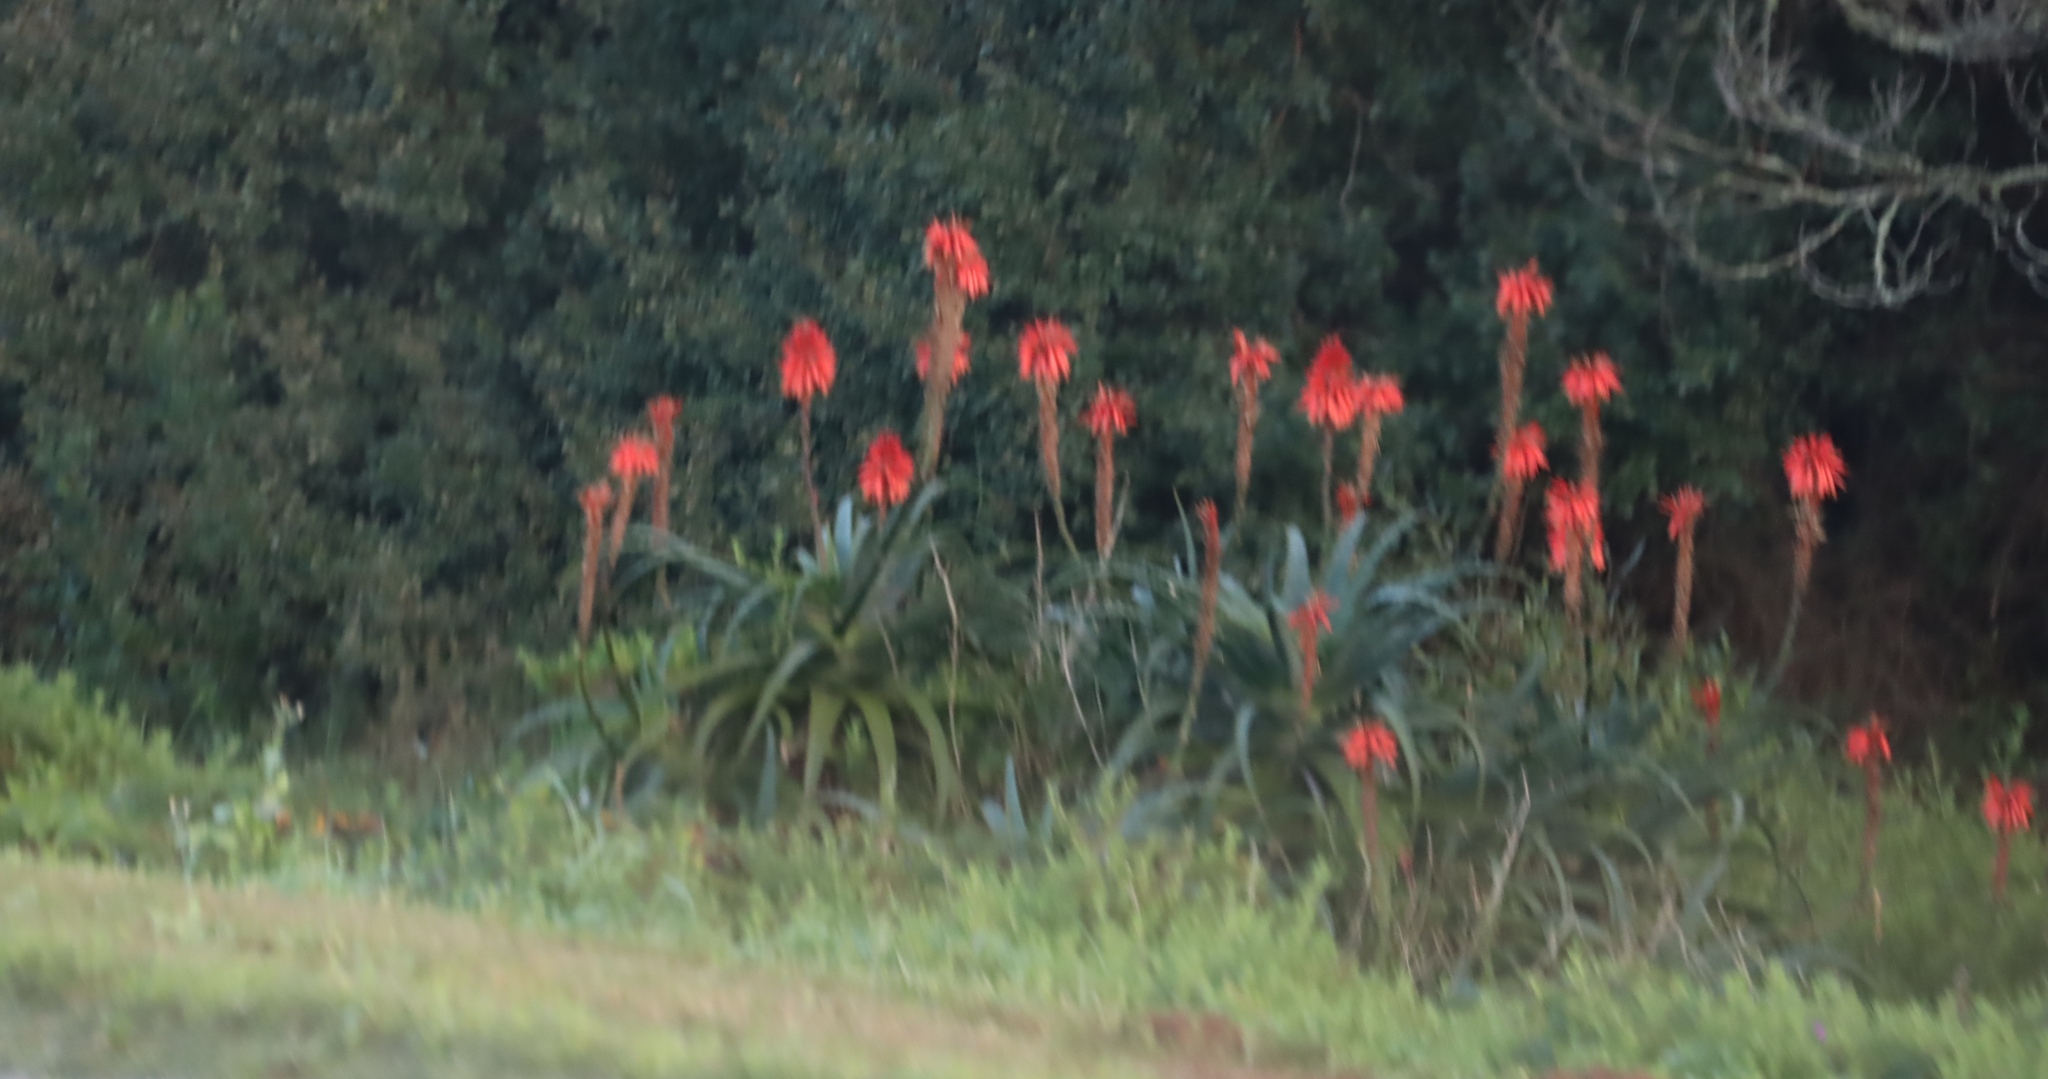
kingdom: Plantae
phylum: Tracheophyta
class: Liliopsida
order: Asparagales
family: Asphodelaceae
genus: Aloe
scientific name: Aloe arborescens
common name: Candelabra aloe
